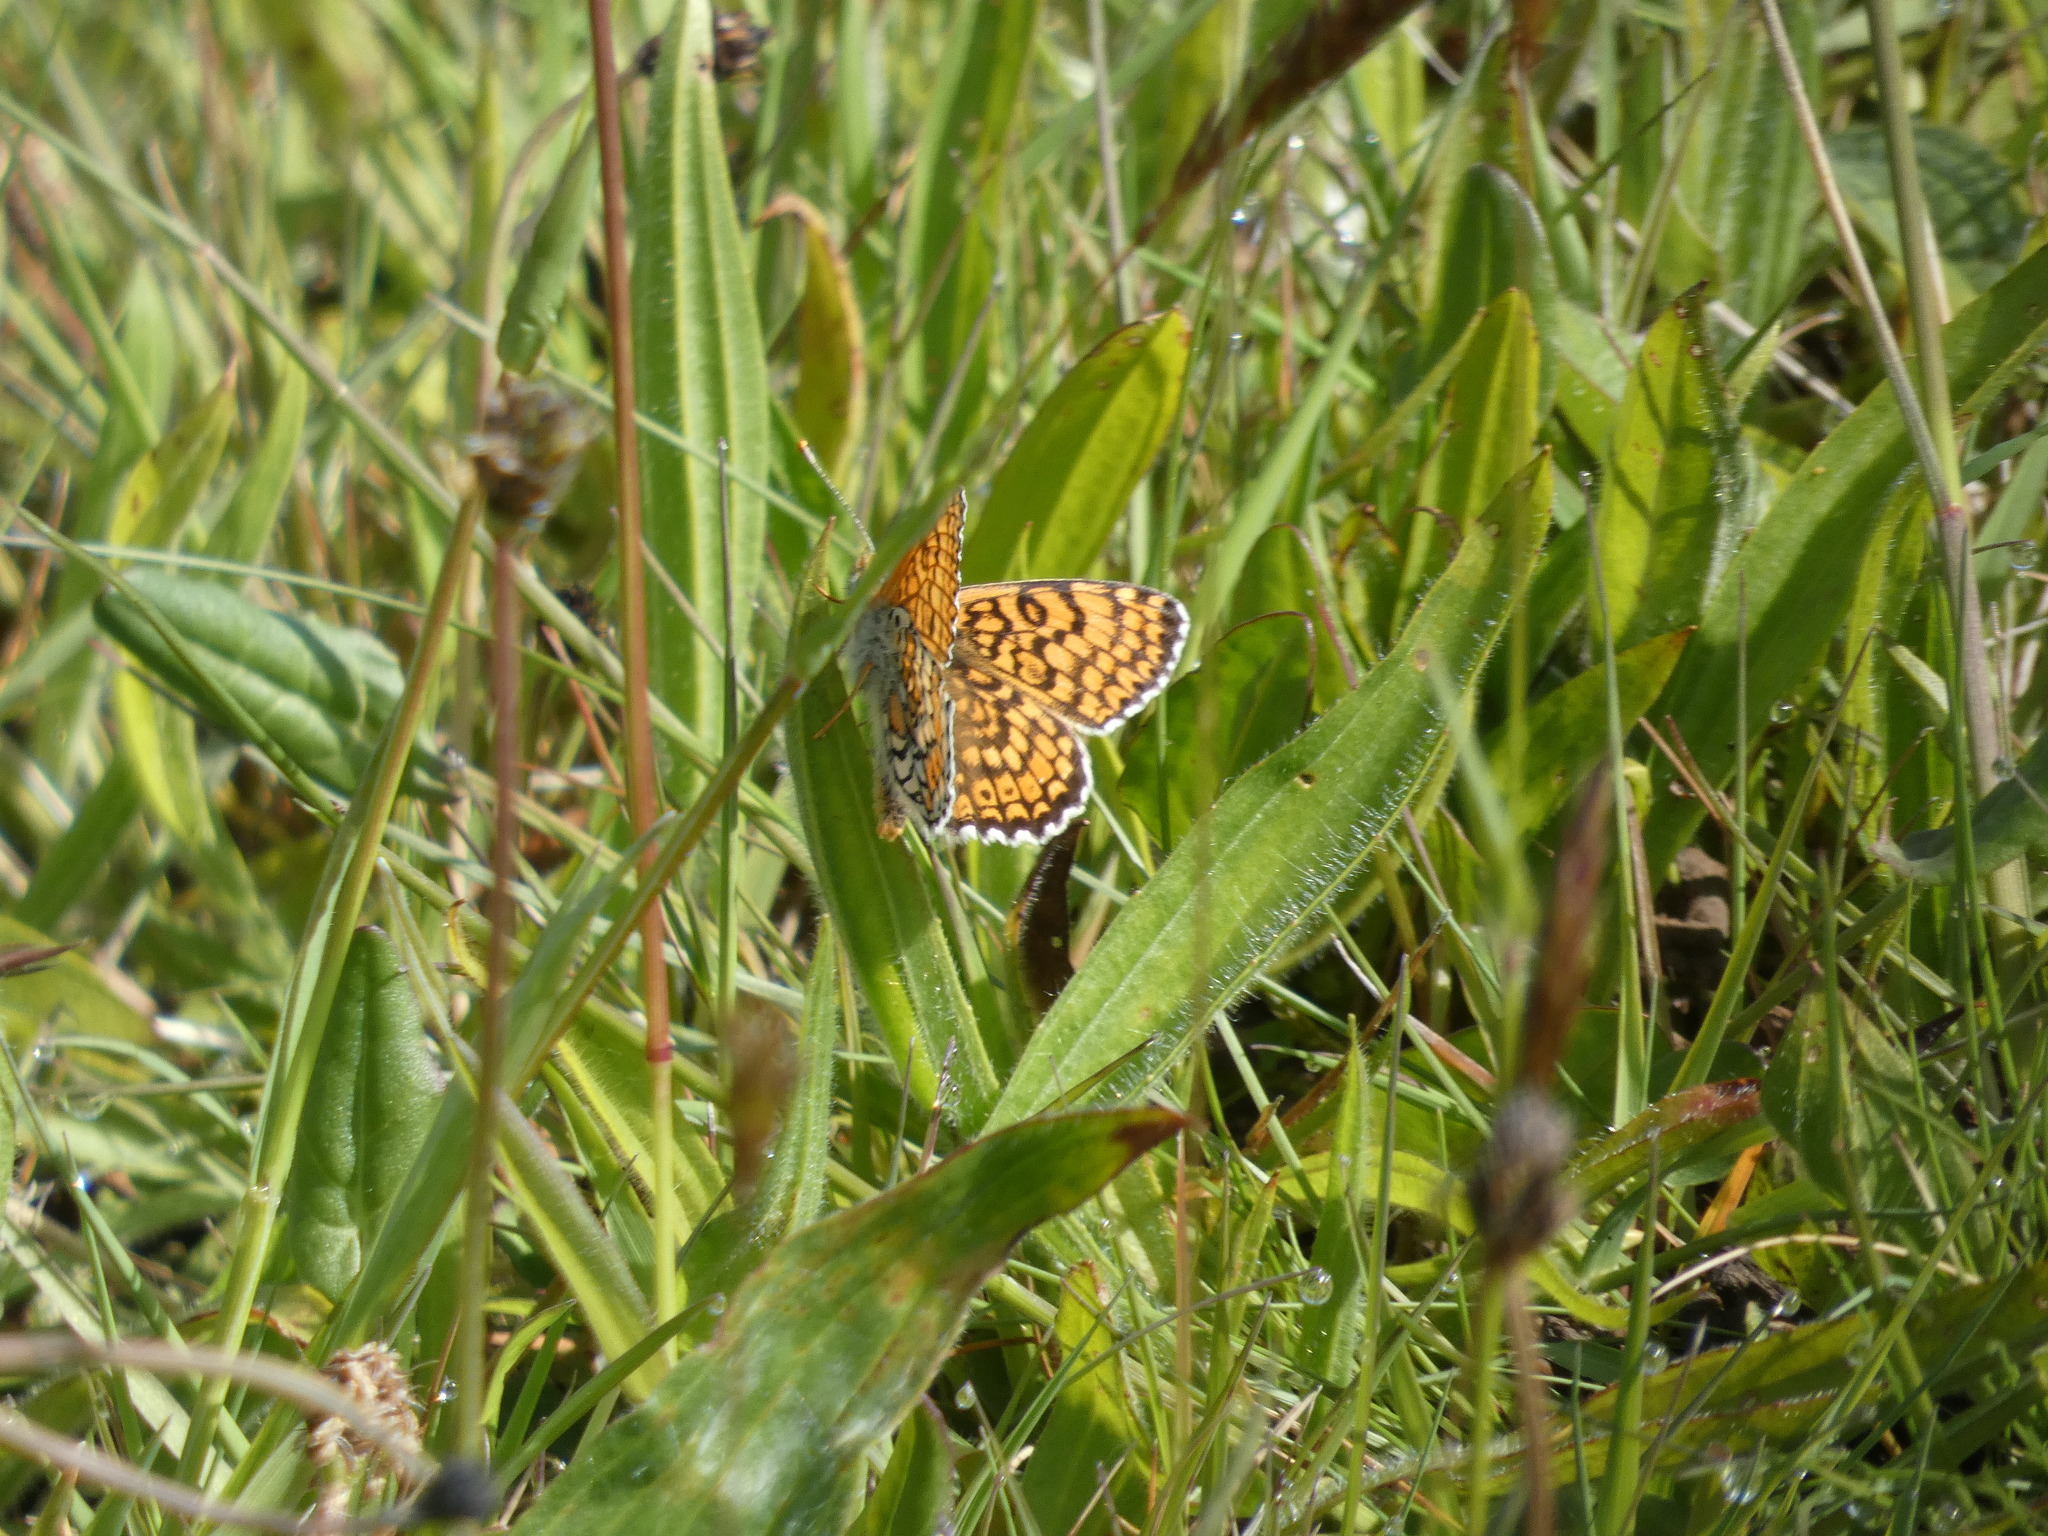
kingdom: Animalia
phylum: Arthropoda
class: Insecta
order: Lepidoptera
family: Nymphalidae
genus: Melitaea
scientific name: Melitaea cinxia
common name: Glanville fritillary
